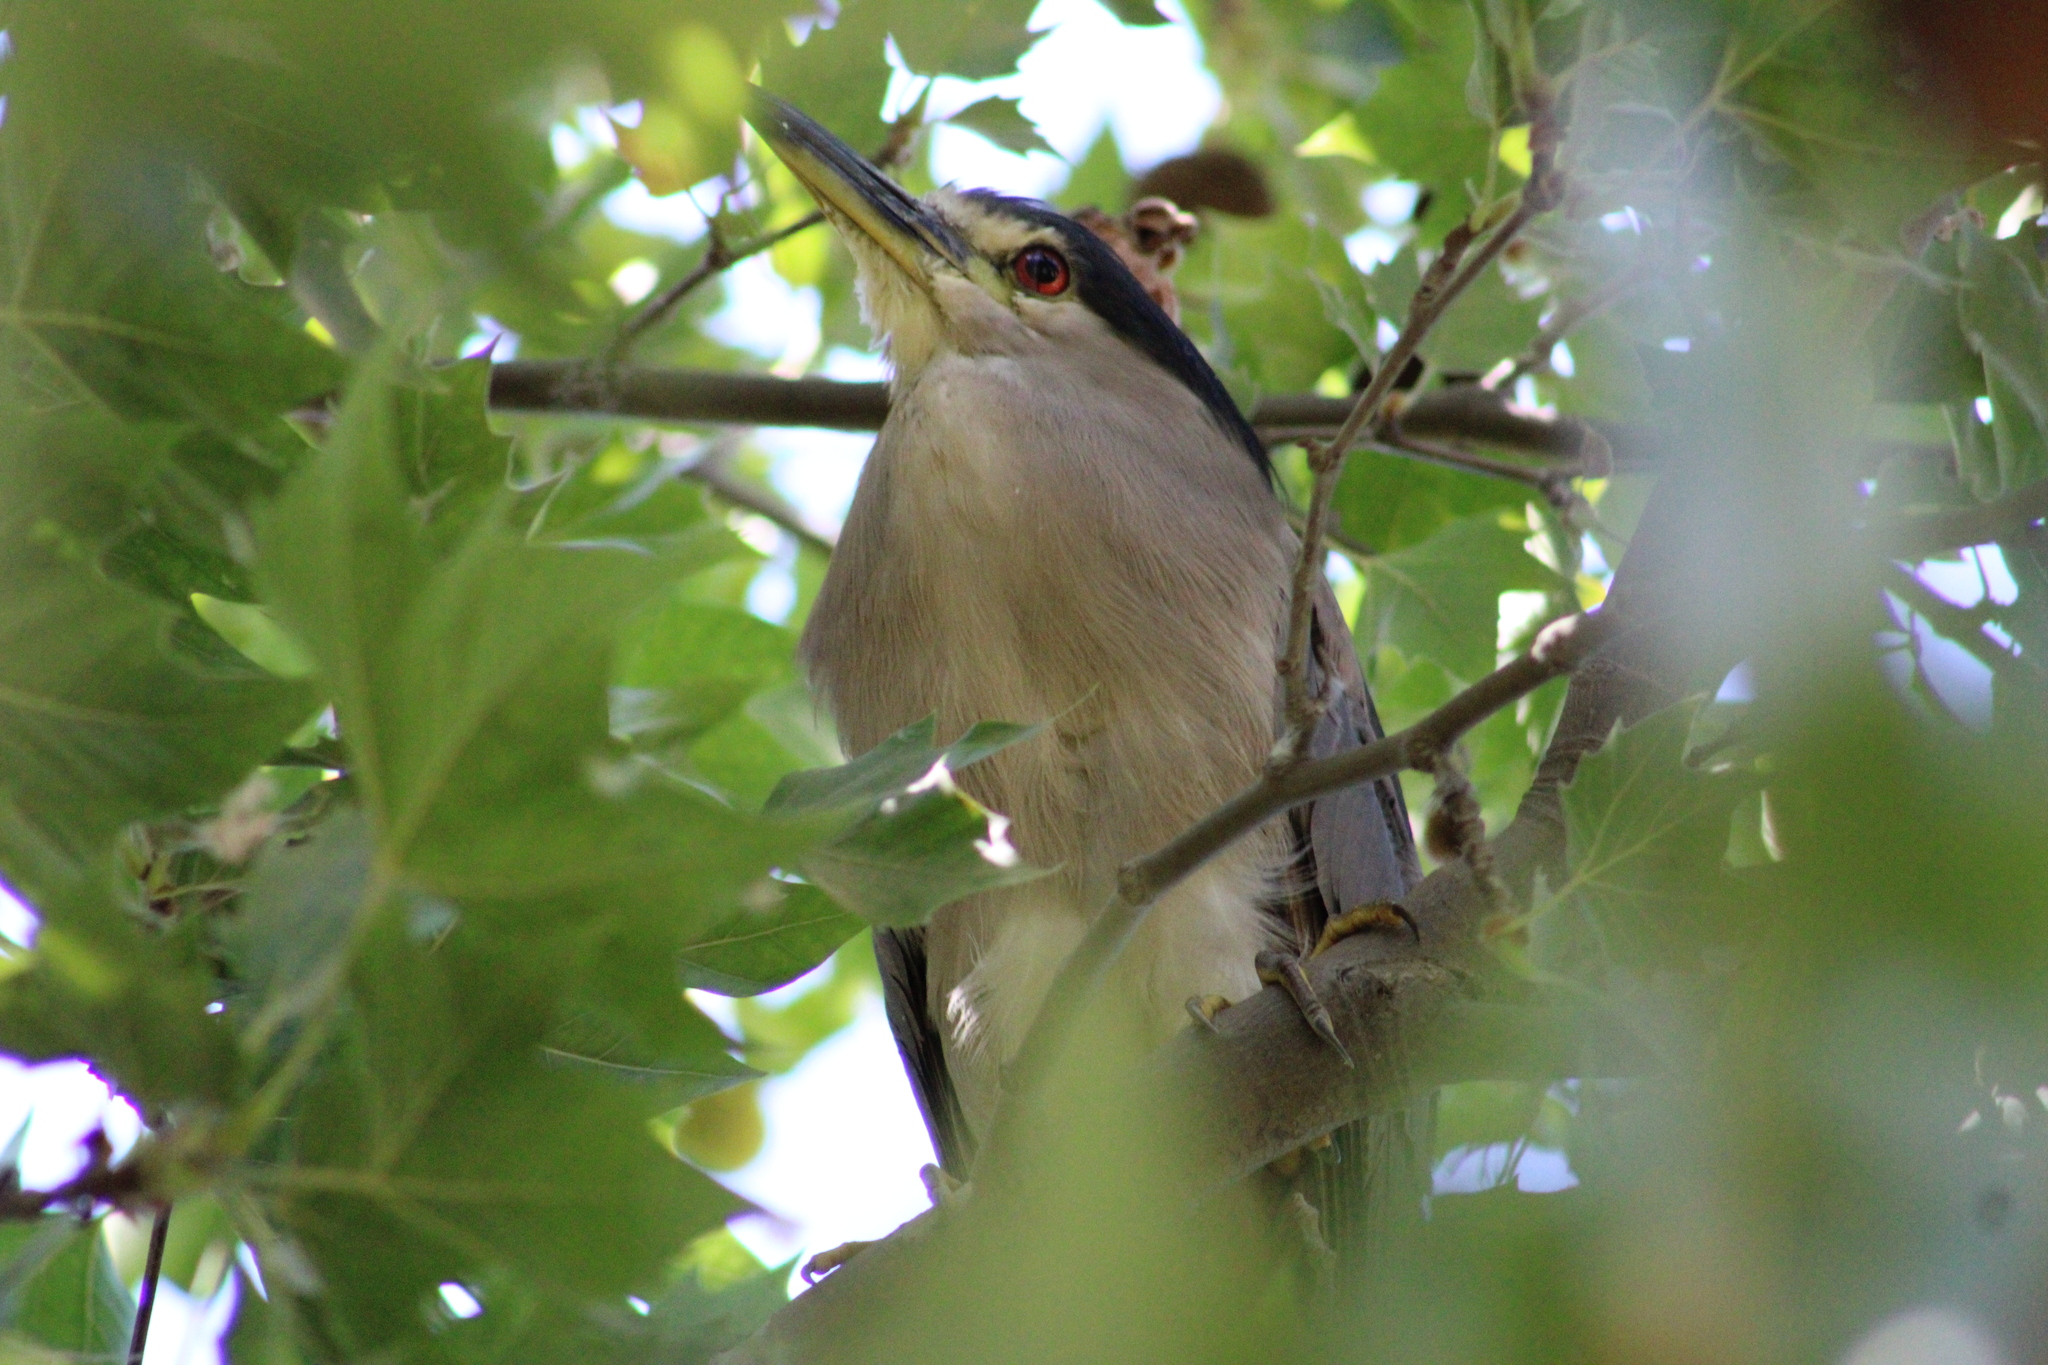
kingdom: Animalia
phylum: Chordata
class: Aves
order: Pelecaniformes
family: Ardeidae
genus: Nycticorax
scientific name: Nycticorax nycticorax
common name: Black-crowned night heron
